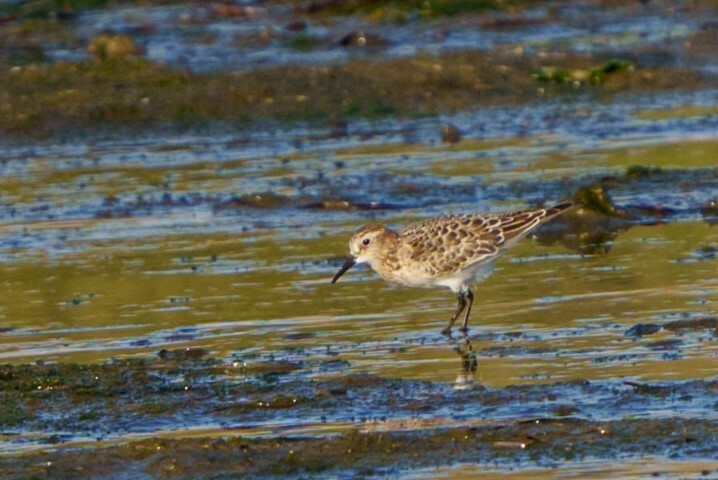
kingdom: Animalia
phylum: Chordata
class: Aves
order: Charadriiformes
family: Scolopacidae
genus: Calidris
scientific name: Calidris bairdii
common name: Baird's sandpiper
